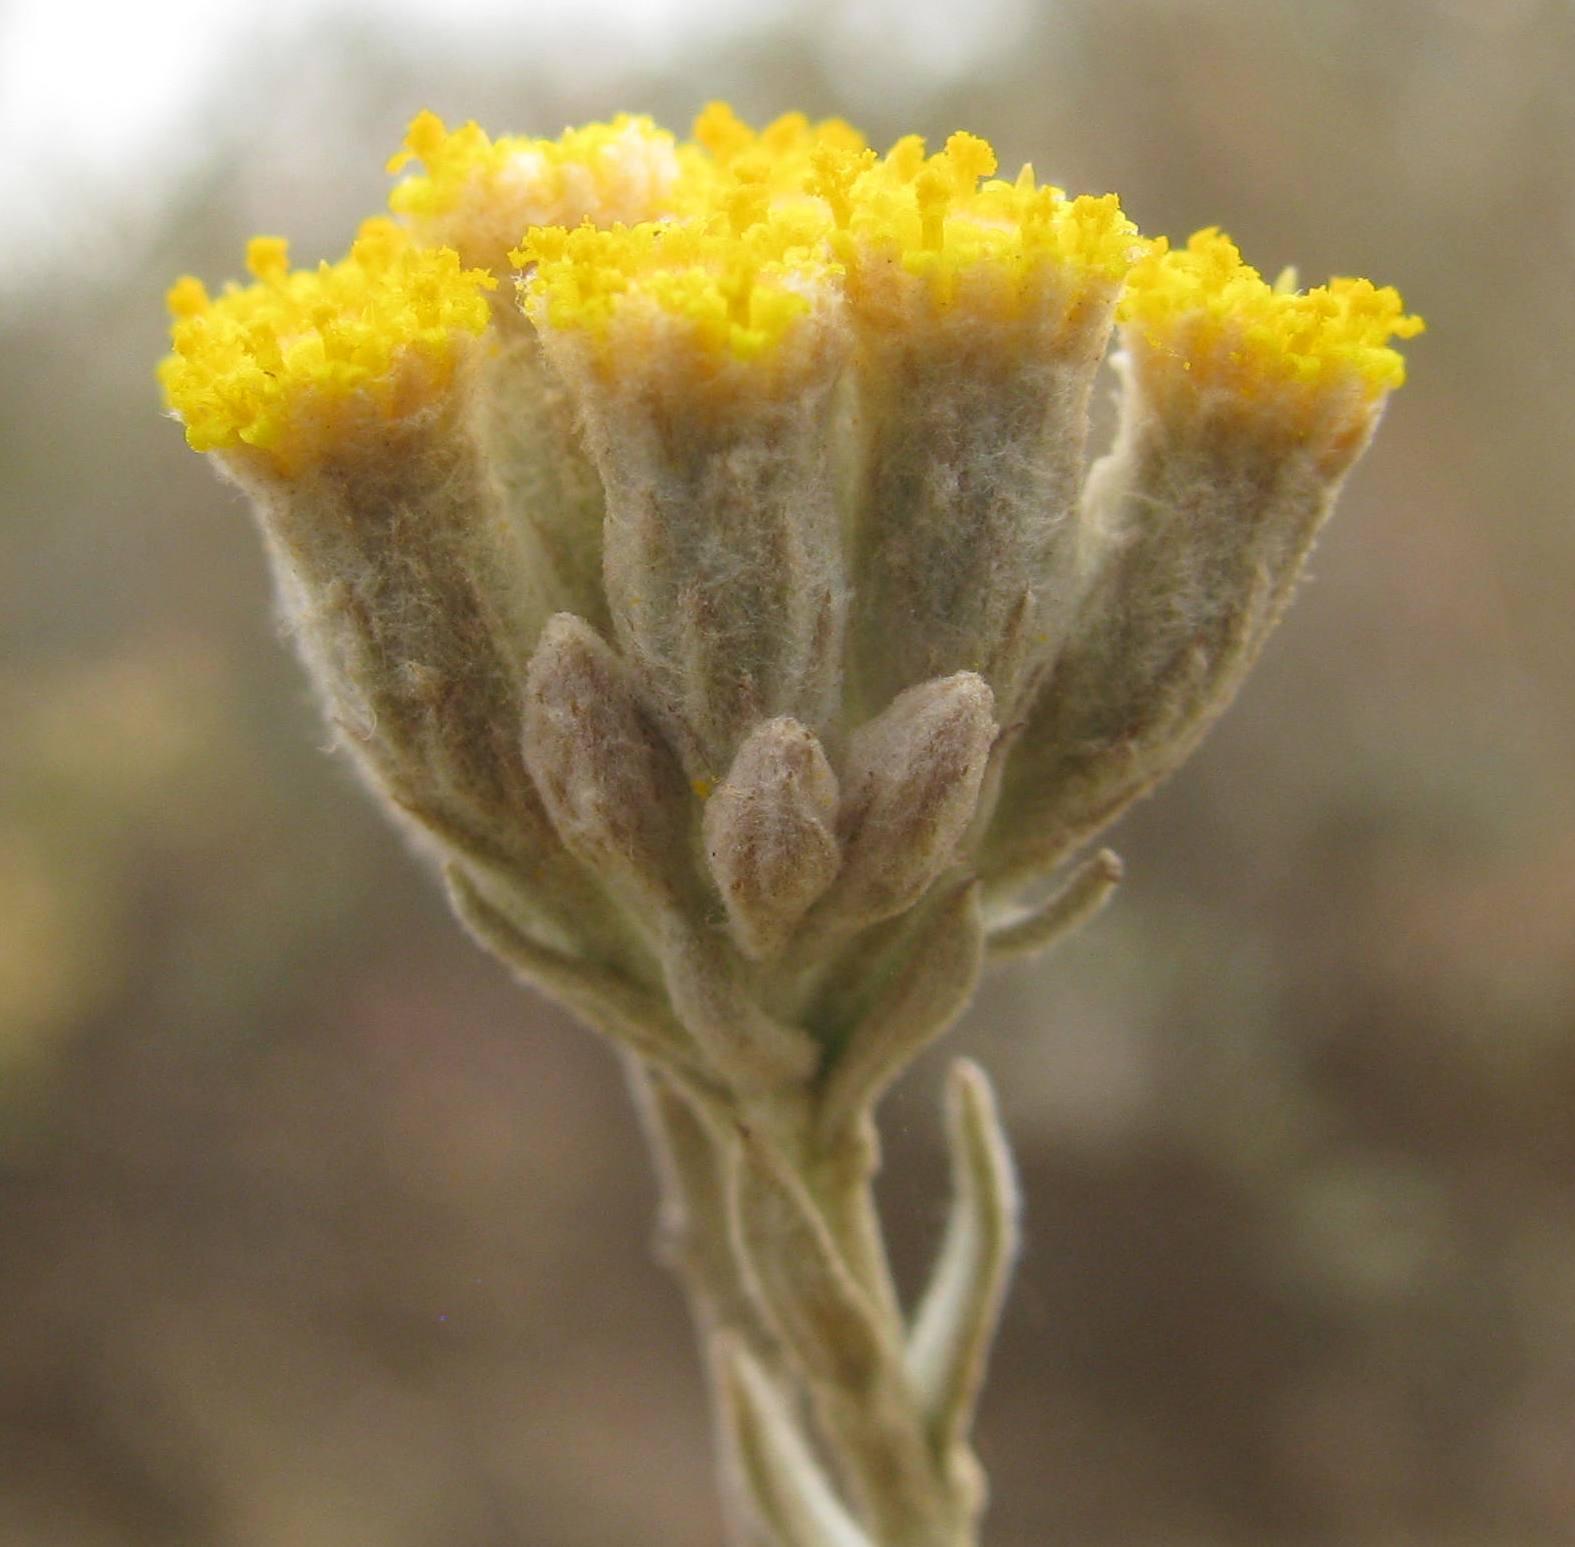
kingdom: Plantae
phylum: Tracheophyta
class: Magnoliopsida
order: Asterales
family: Asteraceae
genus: Helichrysum
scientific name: Helichrysum lambertianum
